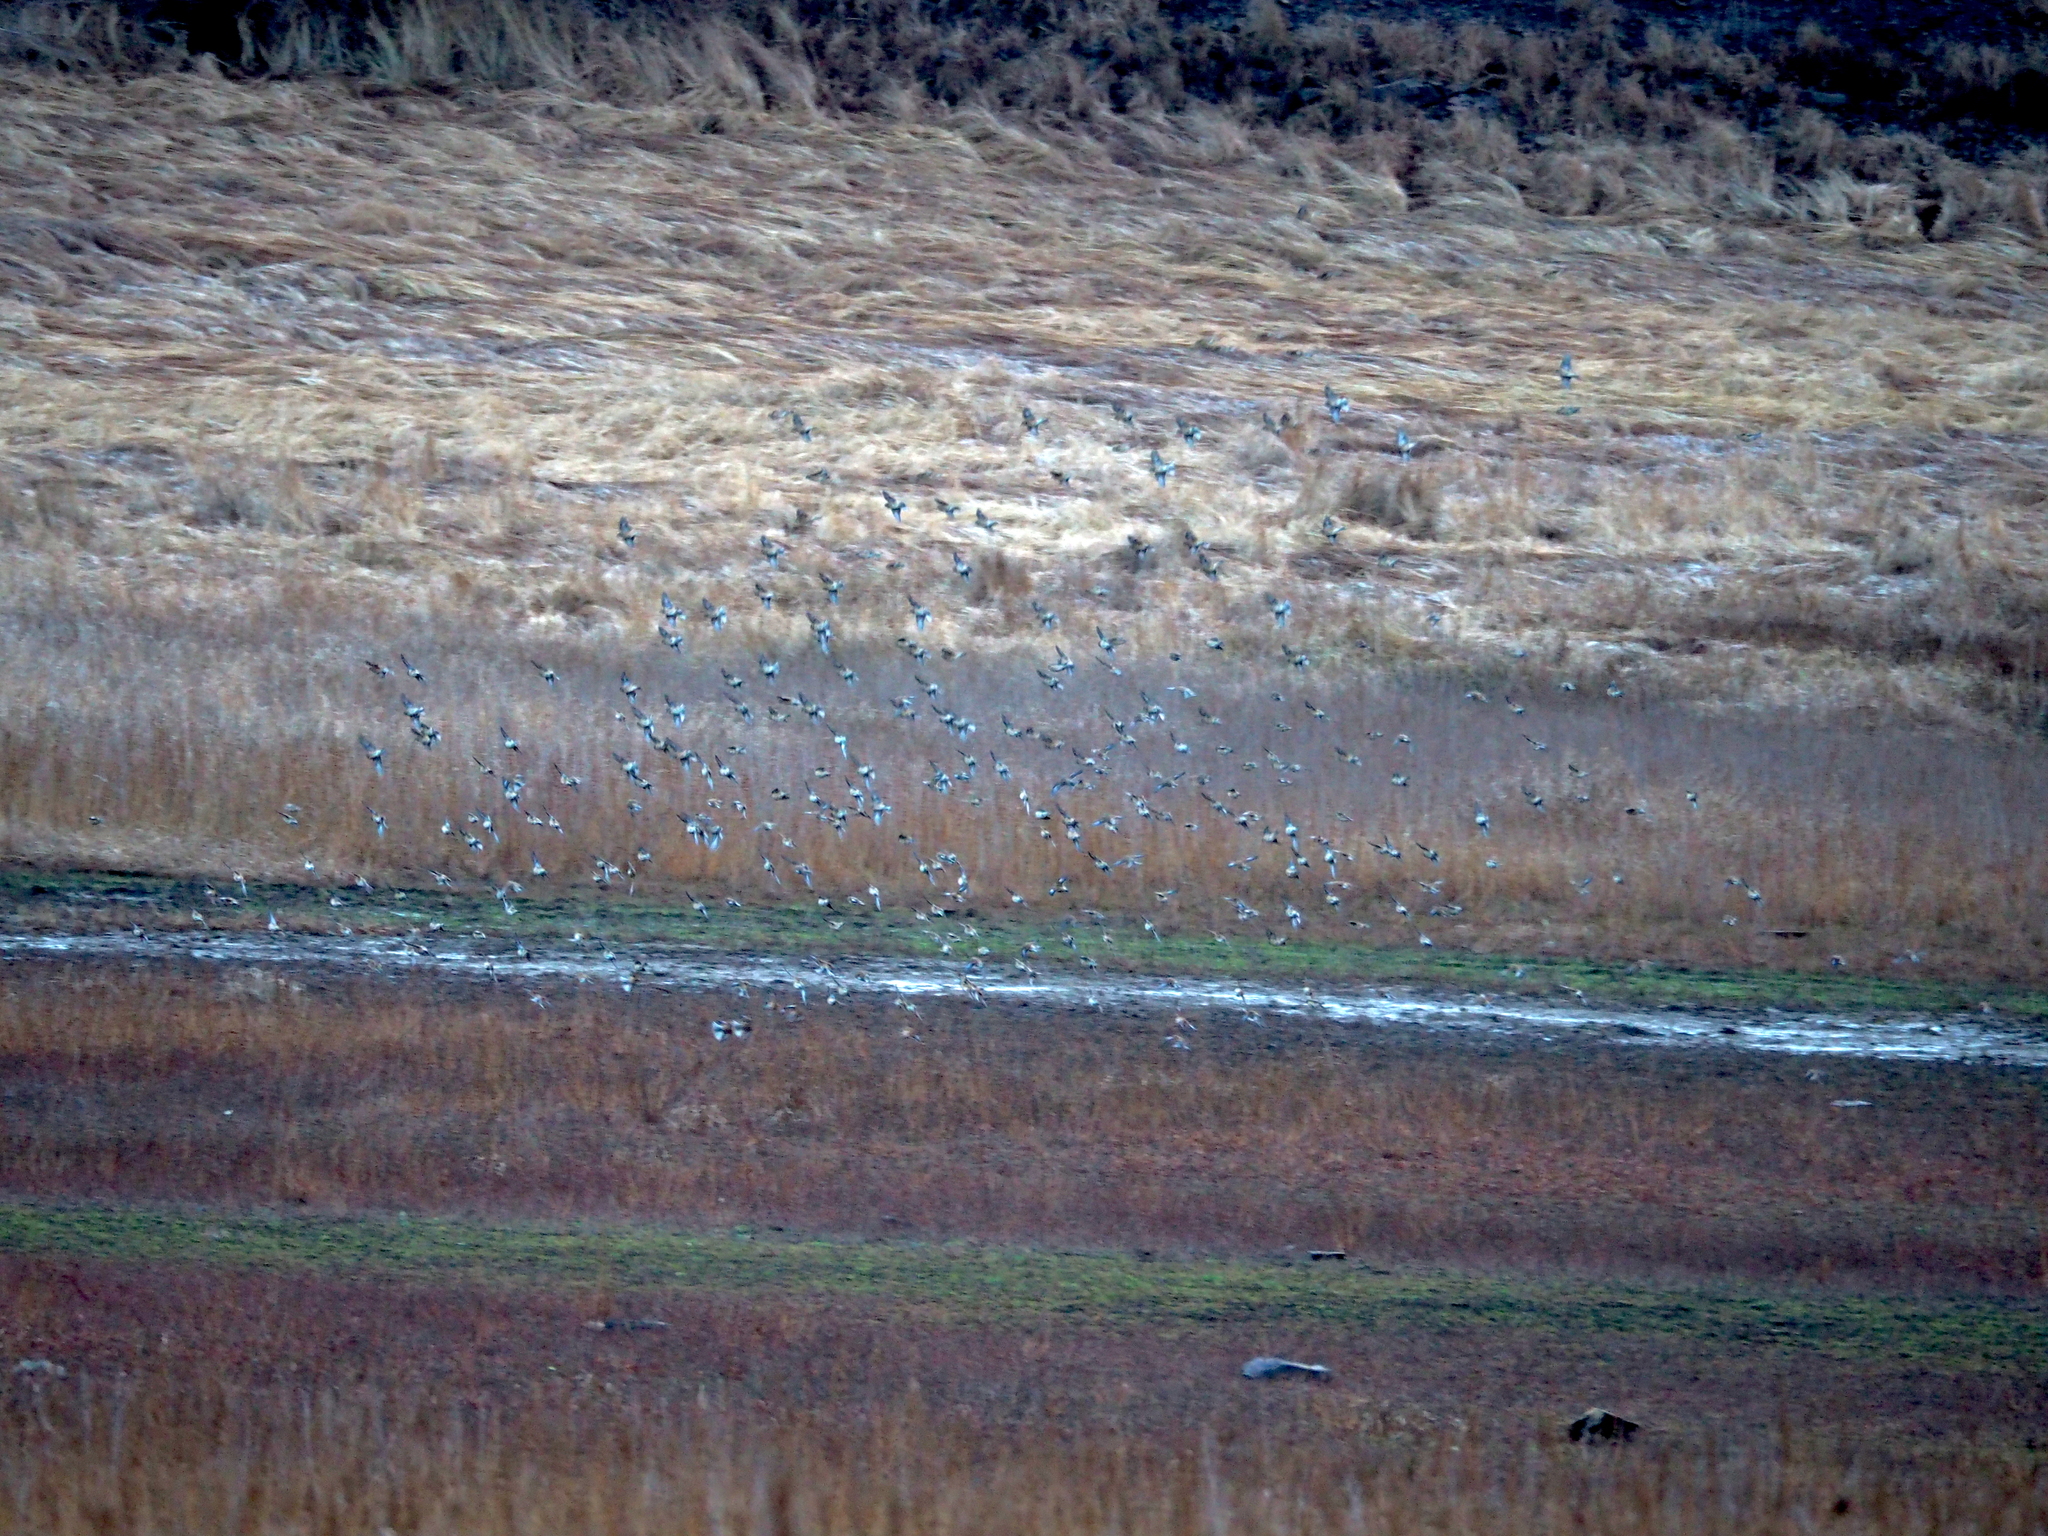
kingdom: Animalia
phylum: Chordata
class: Aves
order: Passeriformes
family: Fringillidae
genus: Linaria
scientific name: Linaria cannabina
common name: Common linnet
